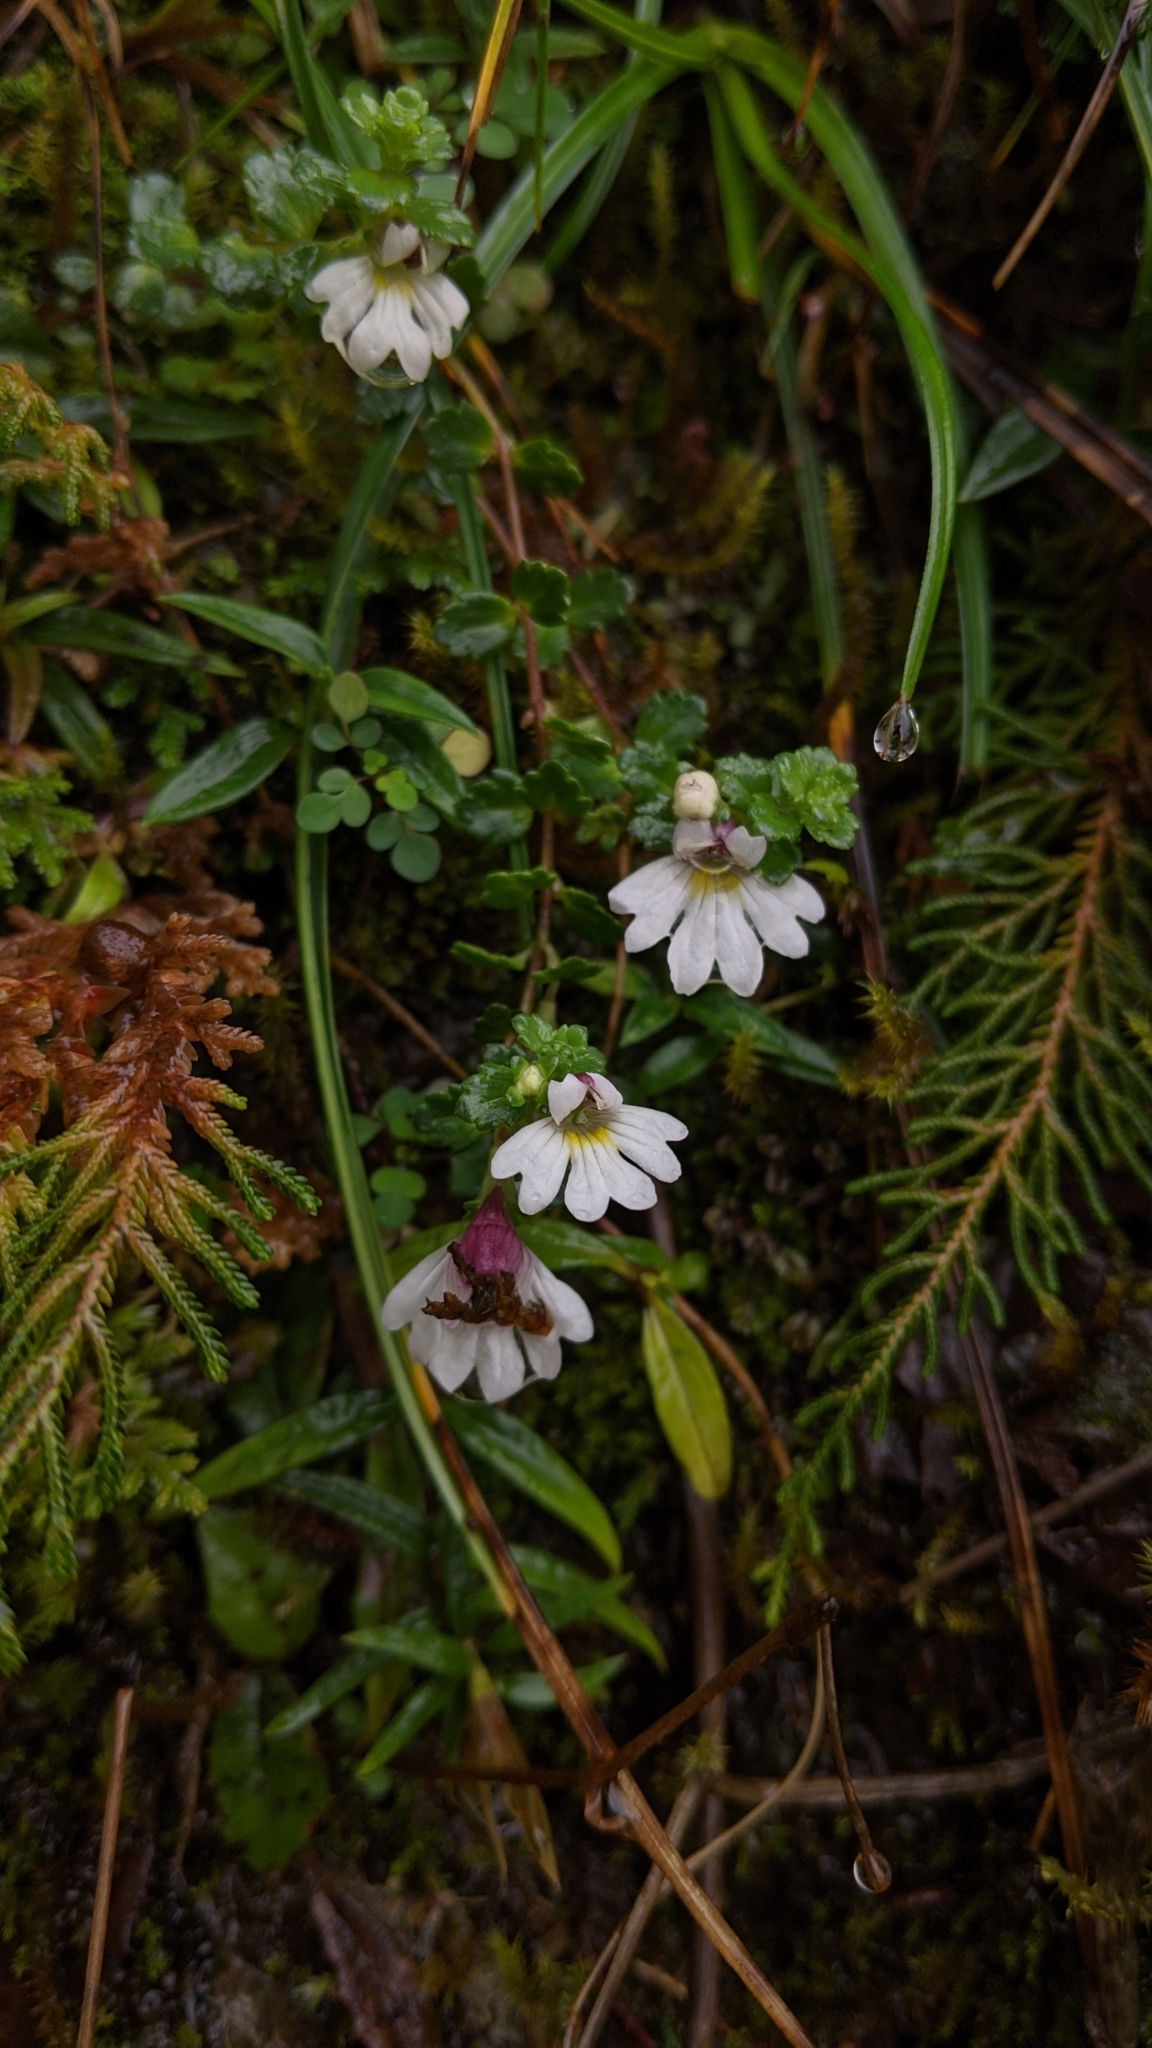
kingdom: Plantae
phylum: Tracheophyta
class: Magnoliopsida
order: Lamiales
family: Orobanchaceae
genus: Euphrasia
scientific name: Euphrasia transmorrisonensis
